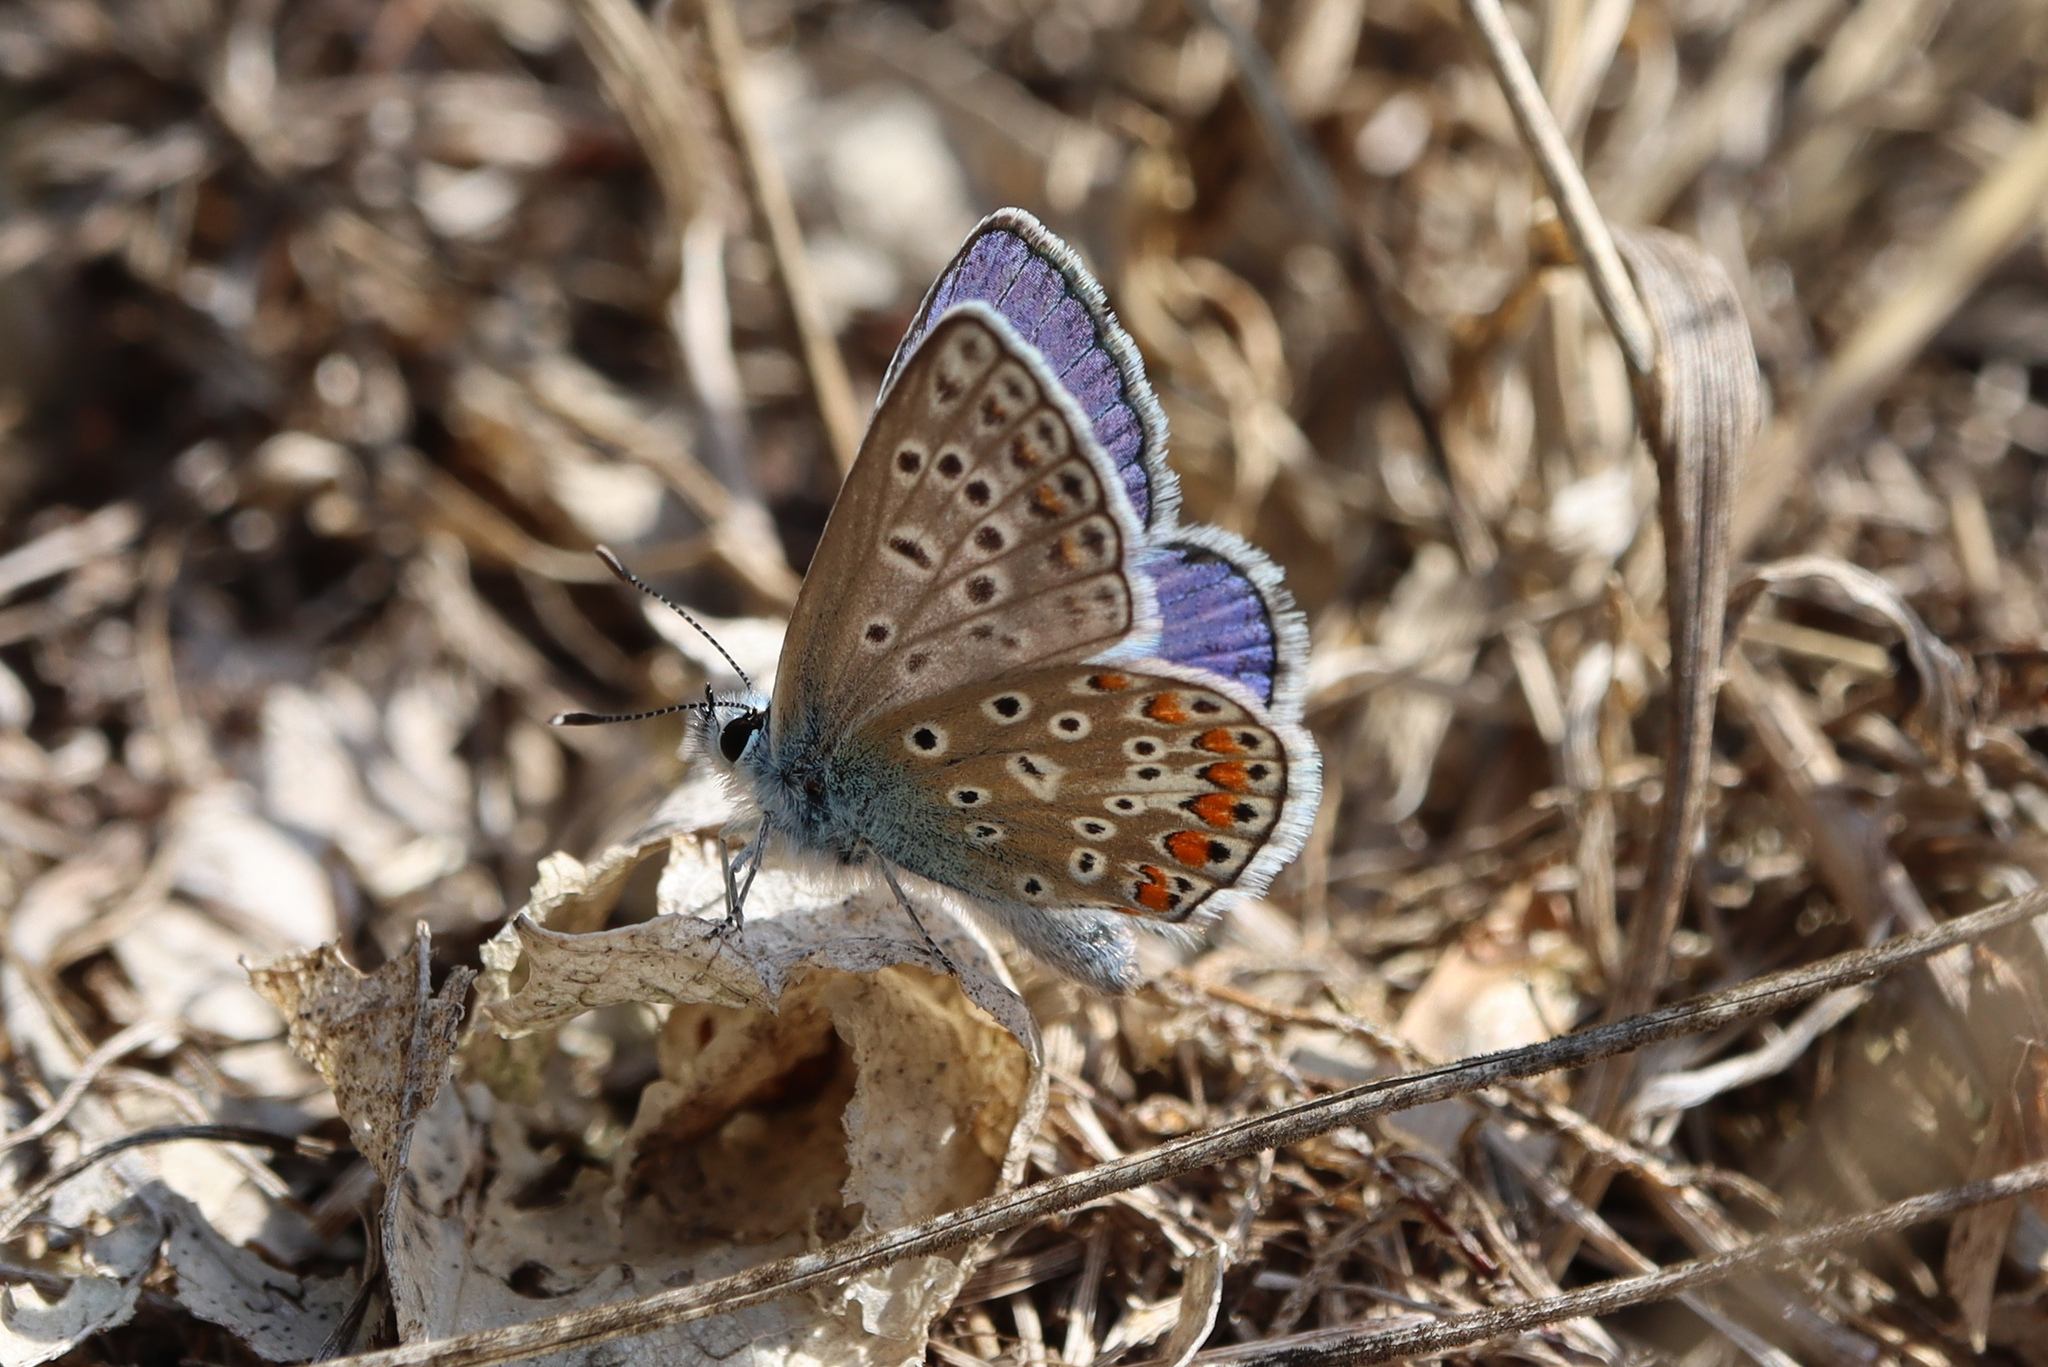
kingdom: Animalia
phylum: Arthropoda
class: Insecta
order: Lepidoptera
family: Lycaenidae
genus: Polyommatus
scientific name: Polyommatus icarus
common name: Common blue
